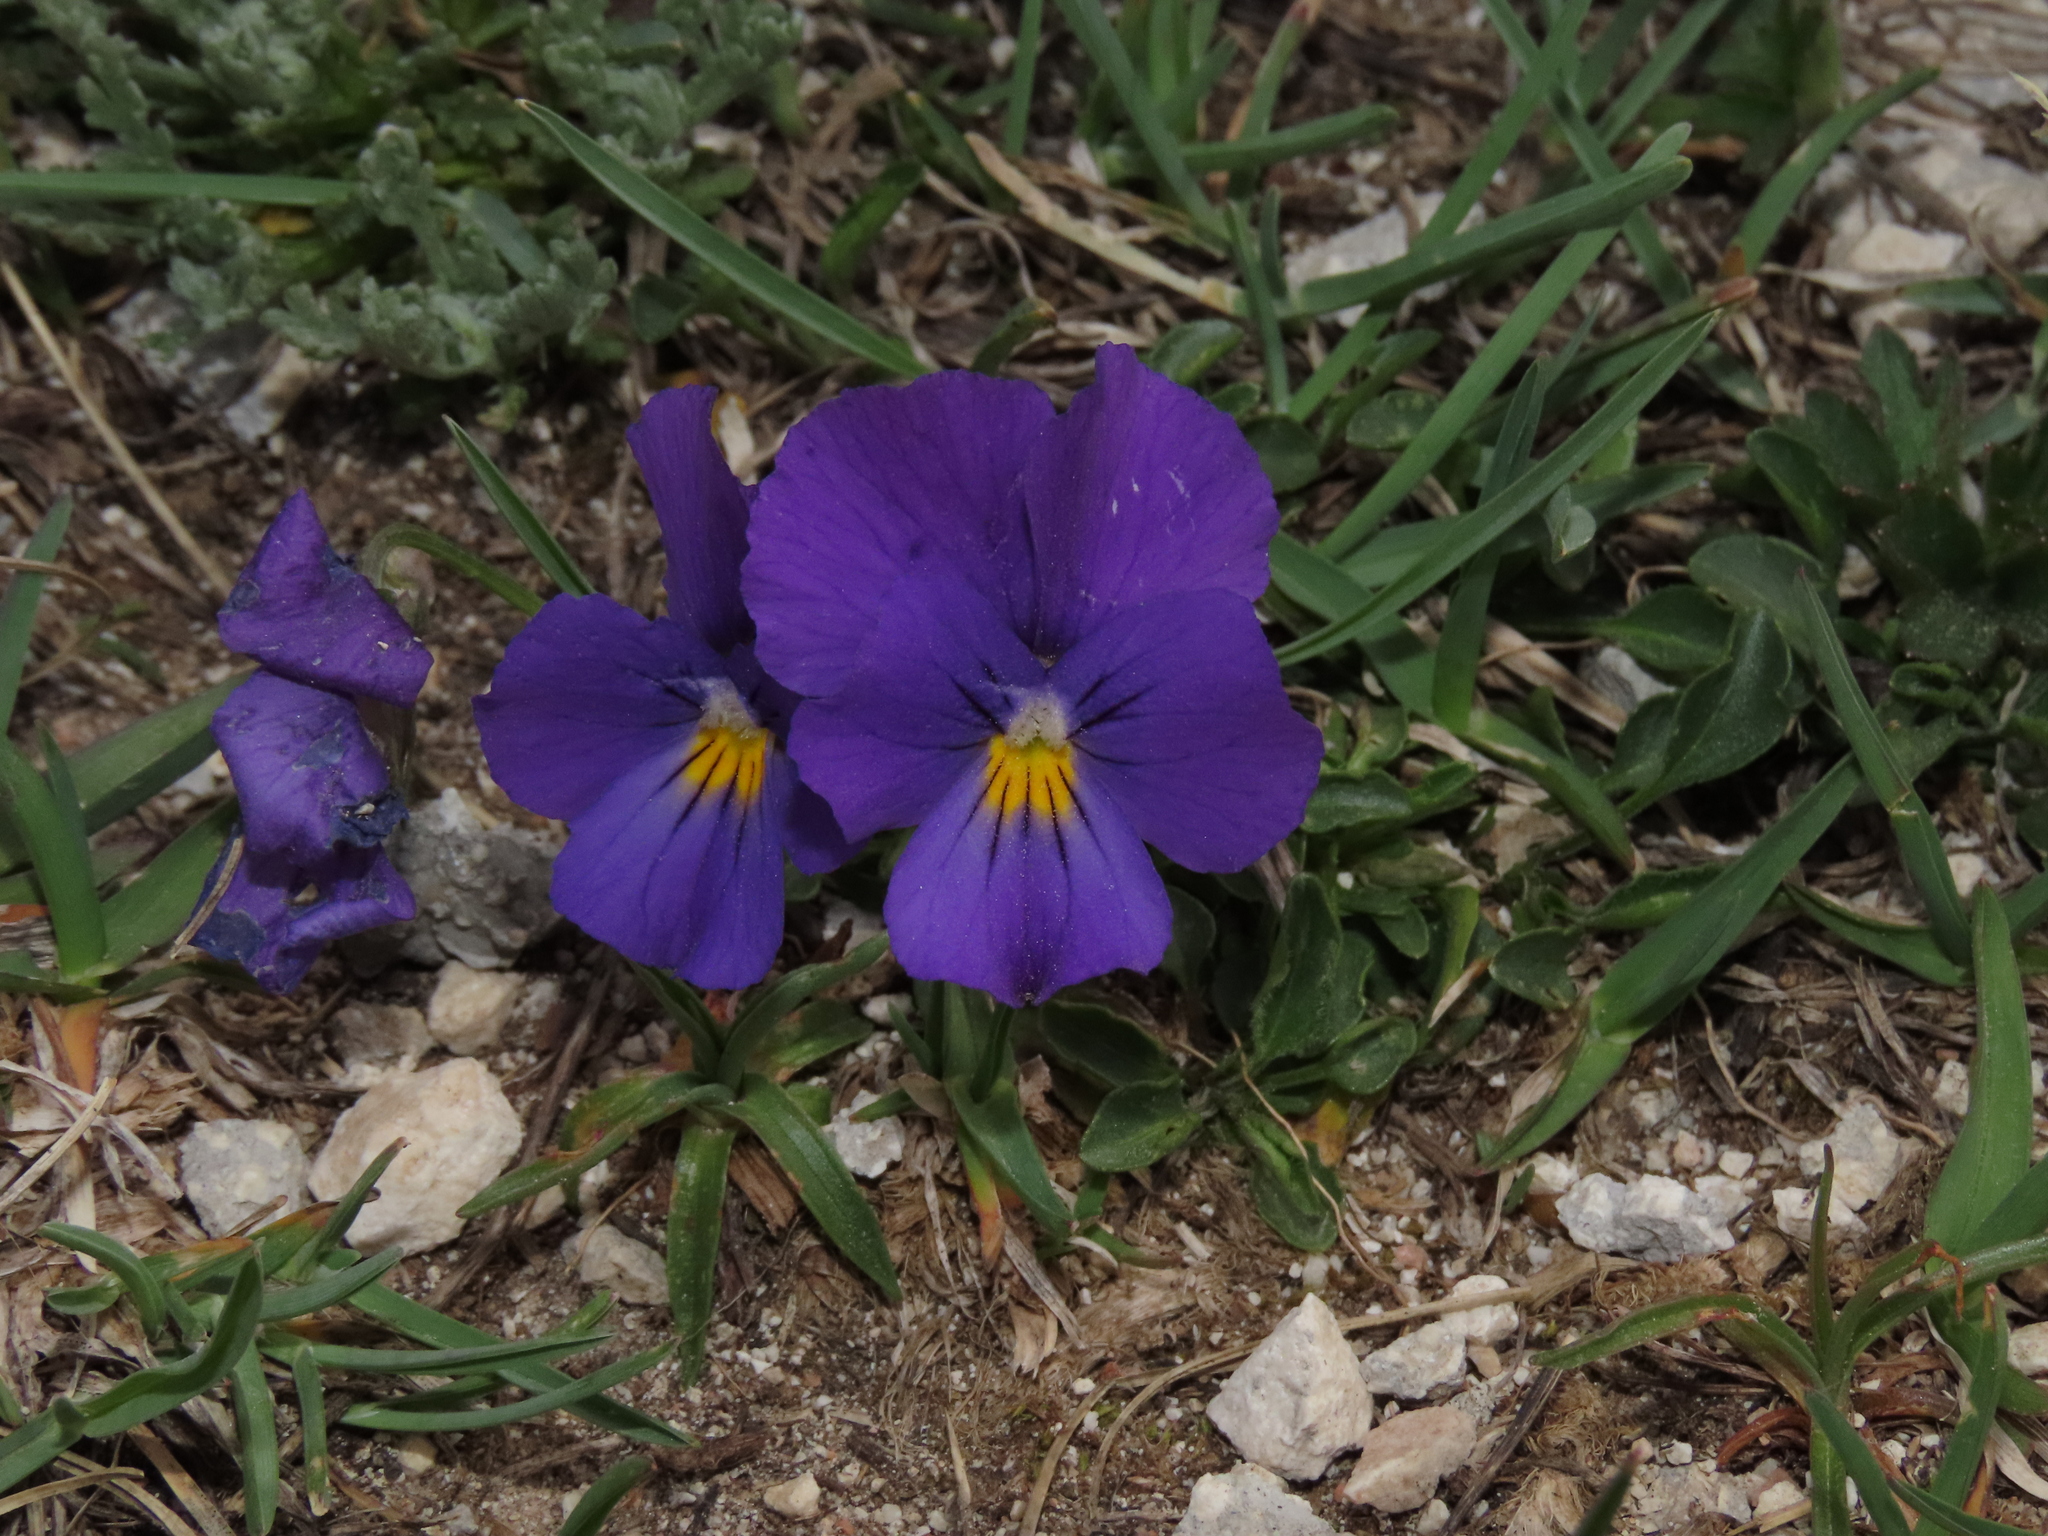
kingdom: Plantae
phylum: Tracheophyta
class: Magnoliopsida
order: Malpighiales
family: Violaceae
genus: Viola
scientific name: Viola eugeniae
